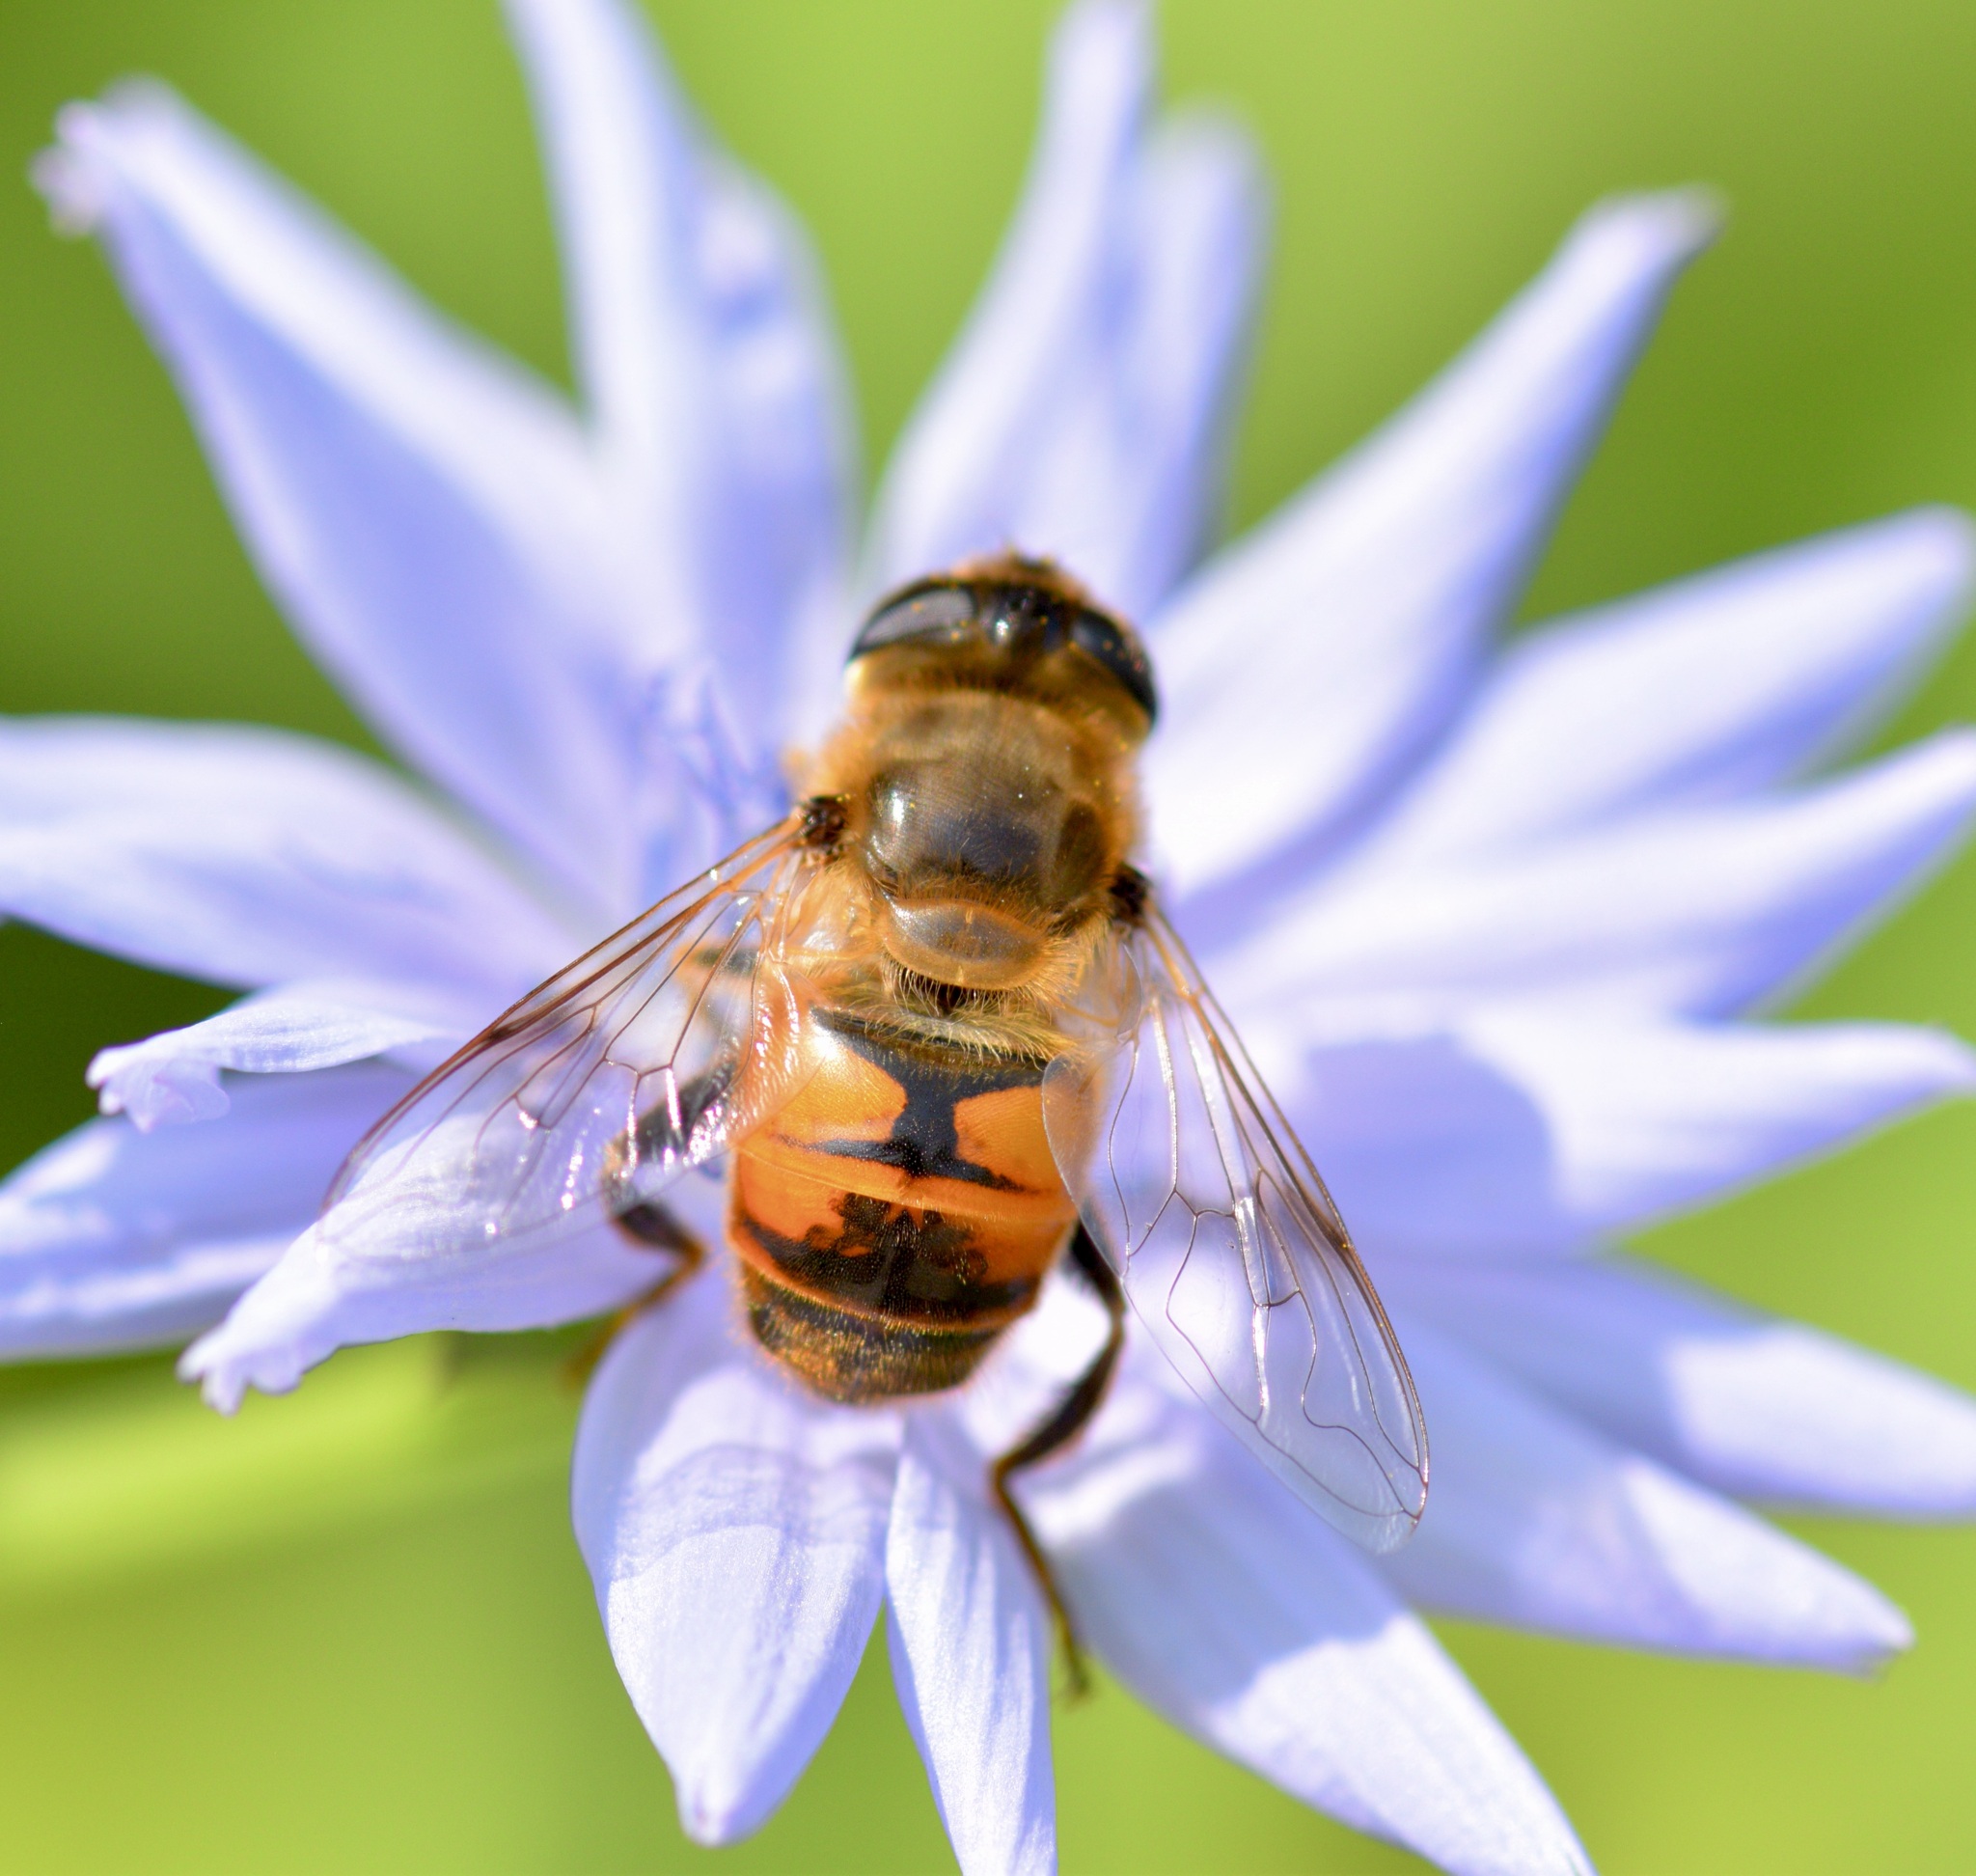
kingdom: Animalia
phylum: Arthropoda
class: Insecta
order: Diptera
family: Syrphidae
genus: Eristalis
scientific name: Eristalis tenax
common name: Drone fly
